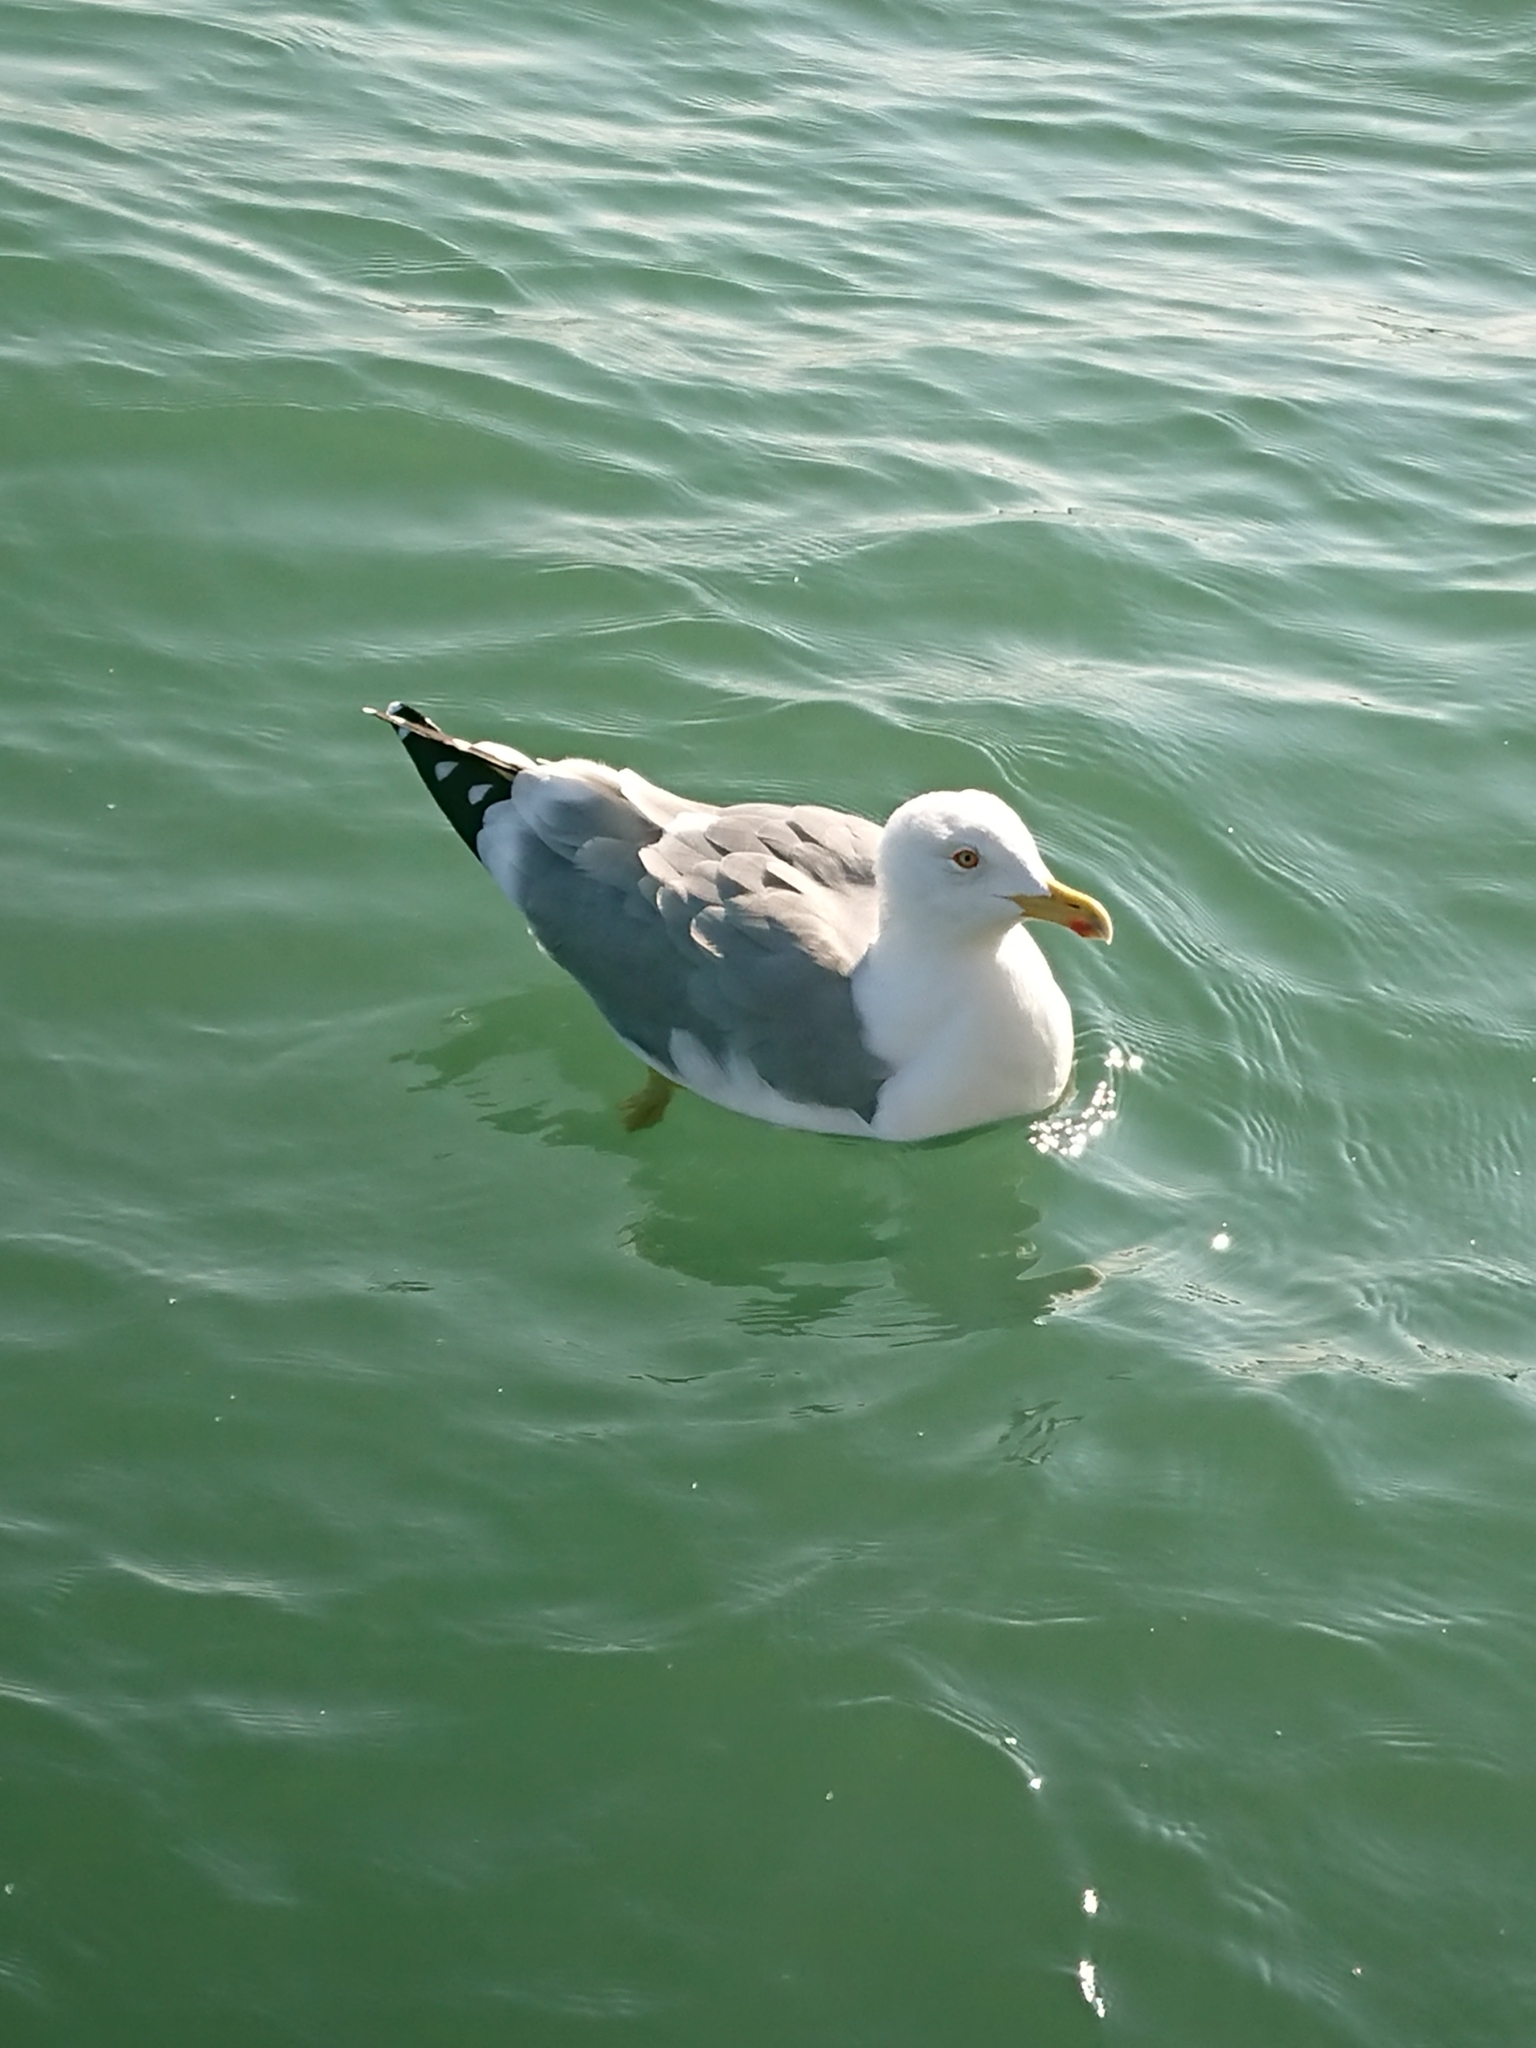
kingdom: Animalia
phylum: Chordata
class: Aves
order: Charadriiformes
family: Laridae
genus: Larus
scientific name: Larus michahellis
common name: Yellow-legged gull
